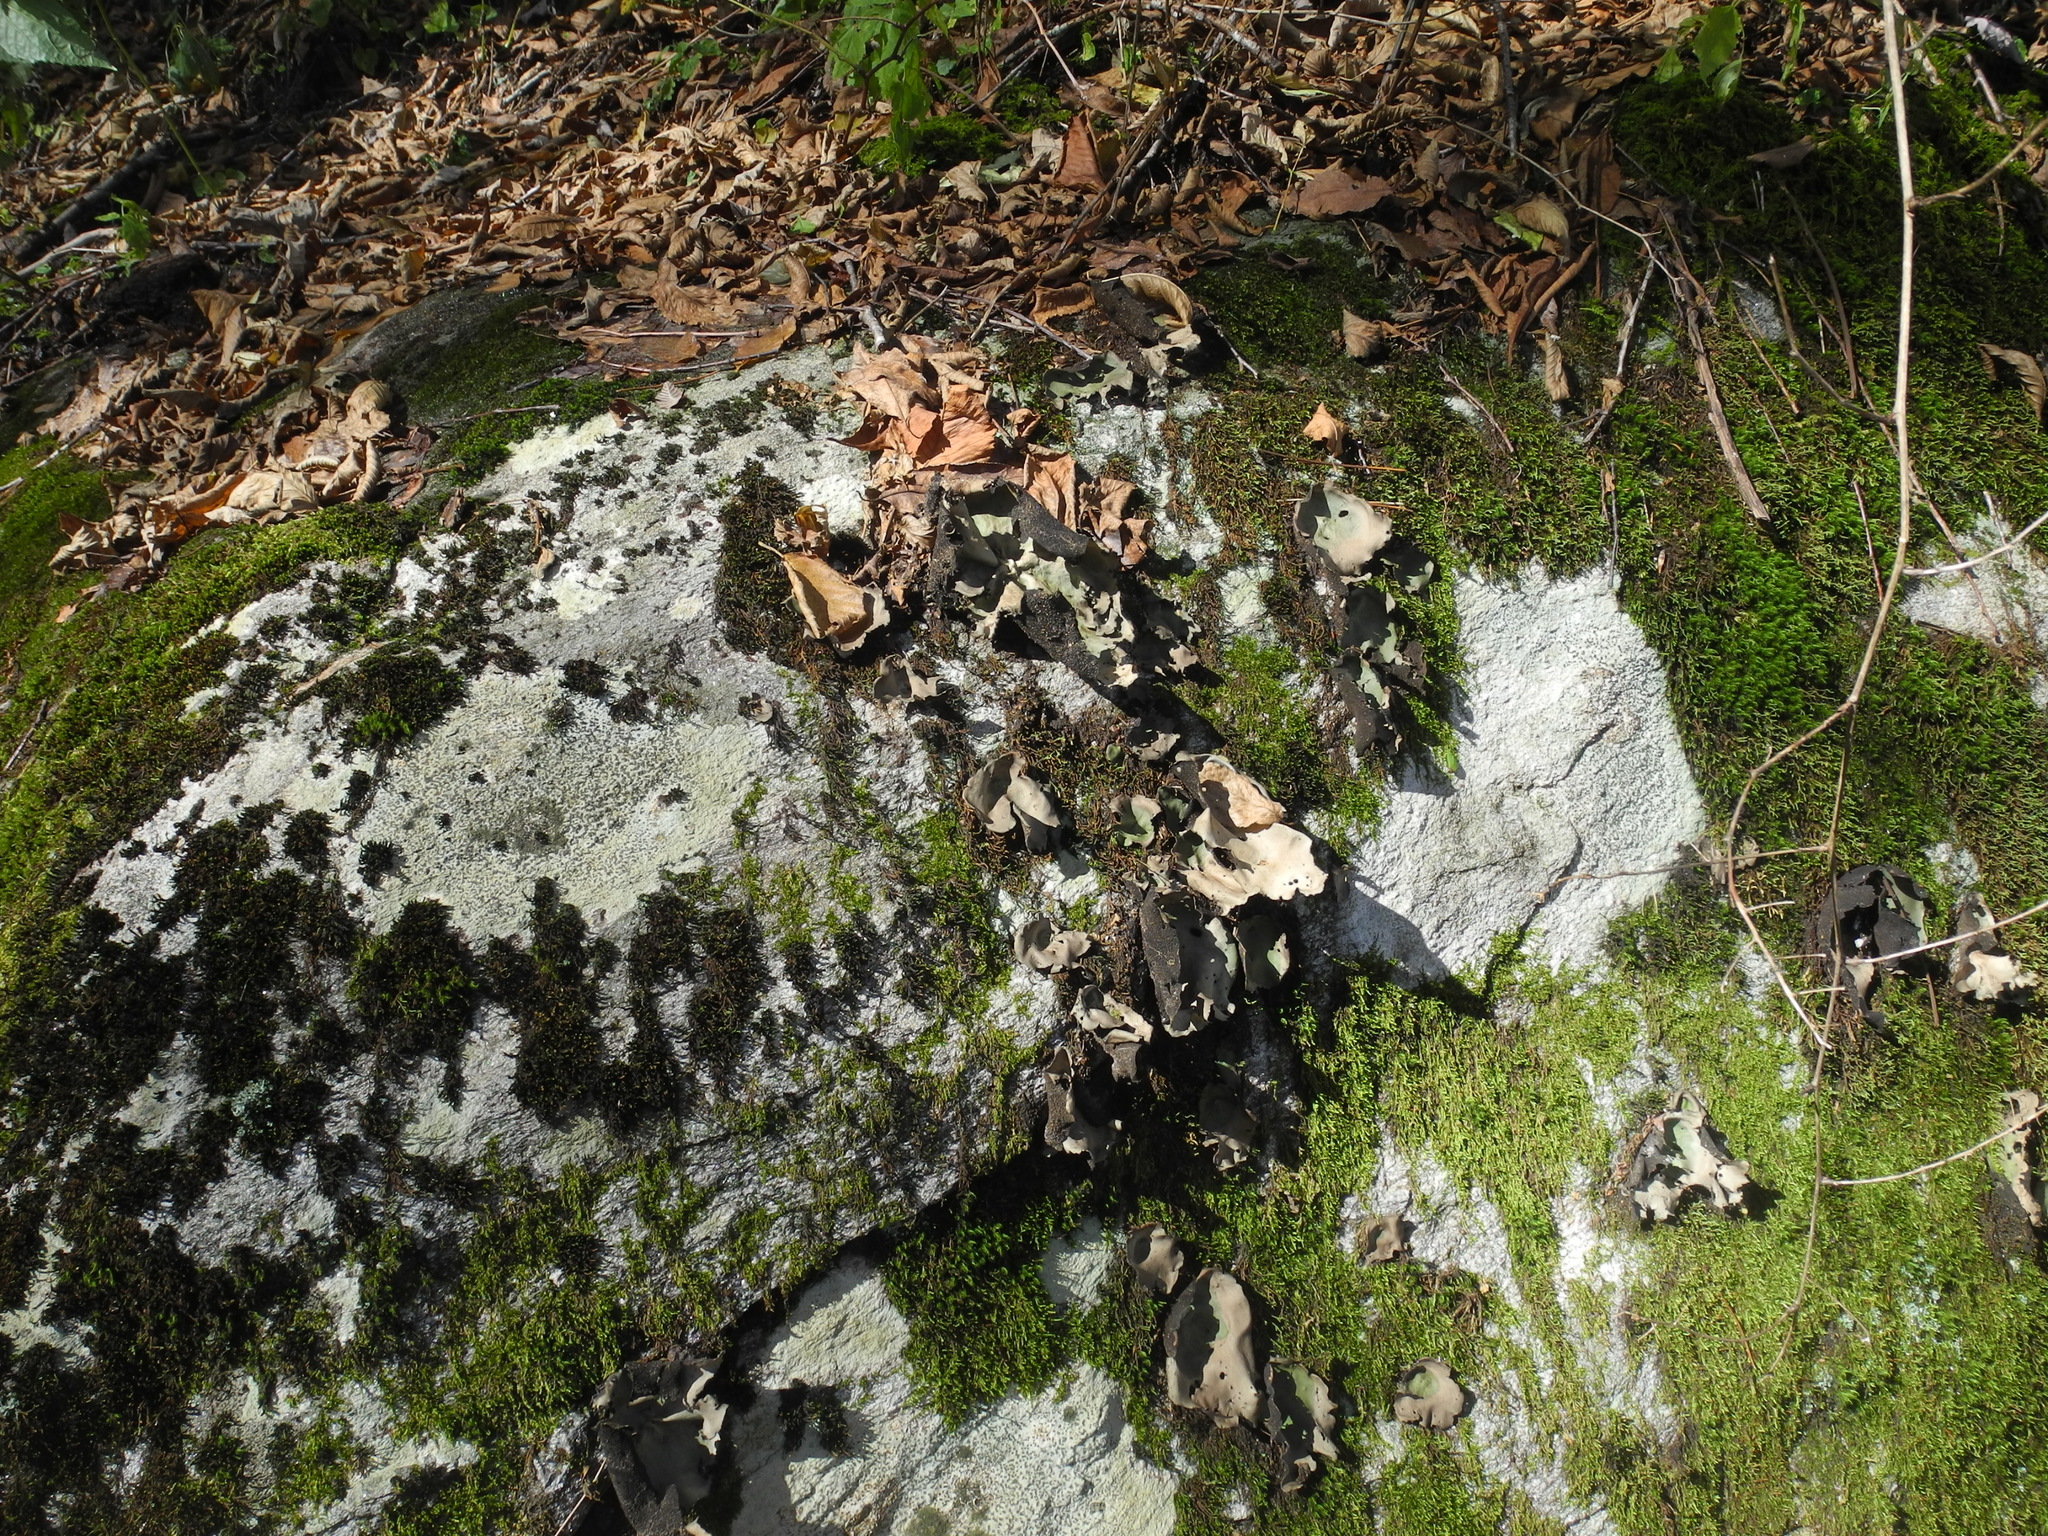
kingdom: Fungi
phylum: Ascomycota
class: Lecanoromycetes
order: Umbilicariales
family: Umbilicariaceae
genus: Umbilicaria
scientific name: Umbilicaria mammulata
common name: Smooth rock tripe
